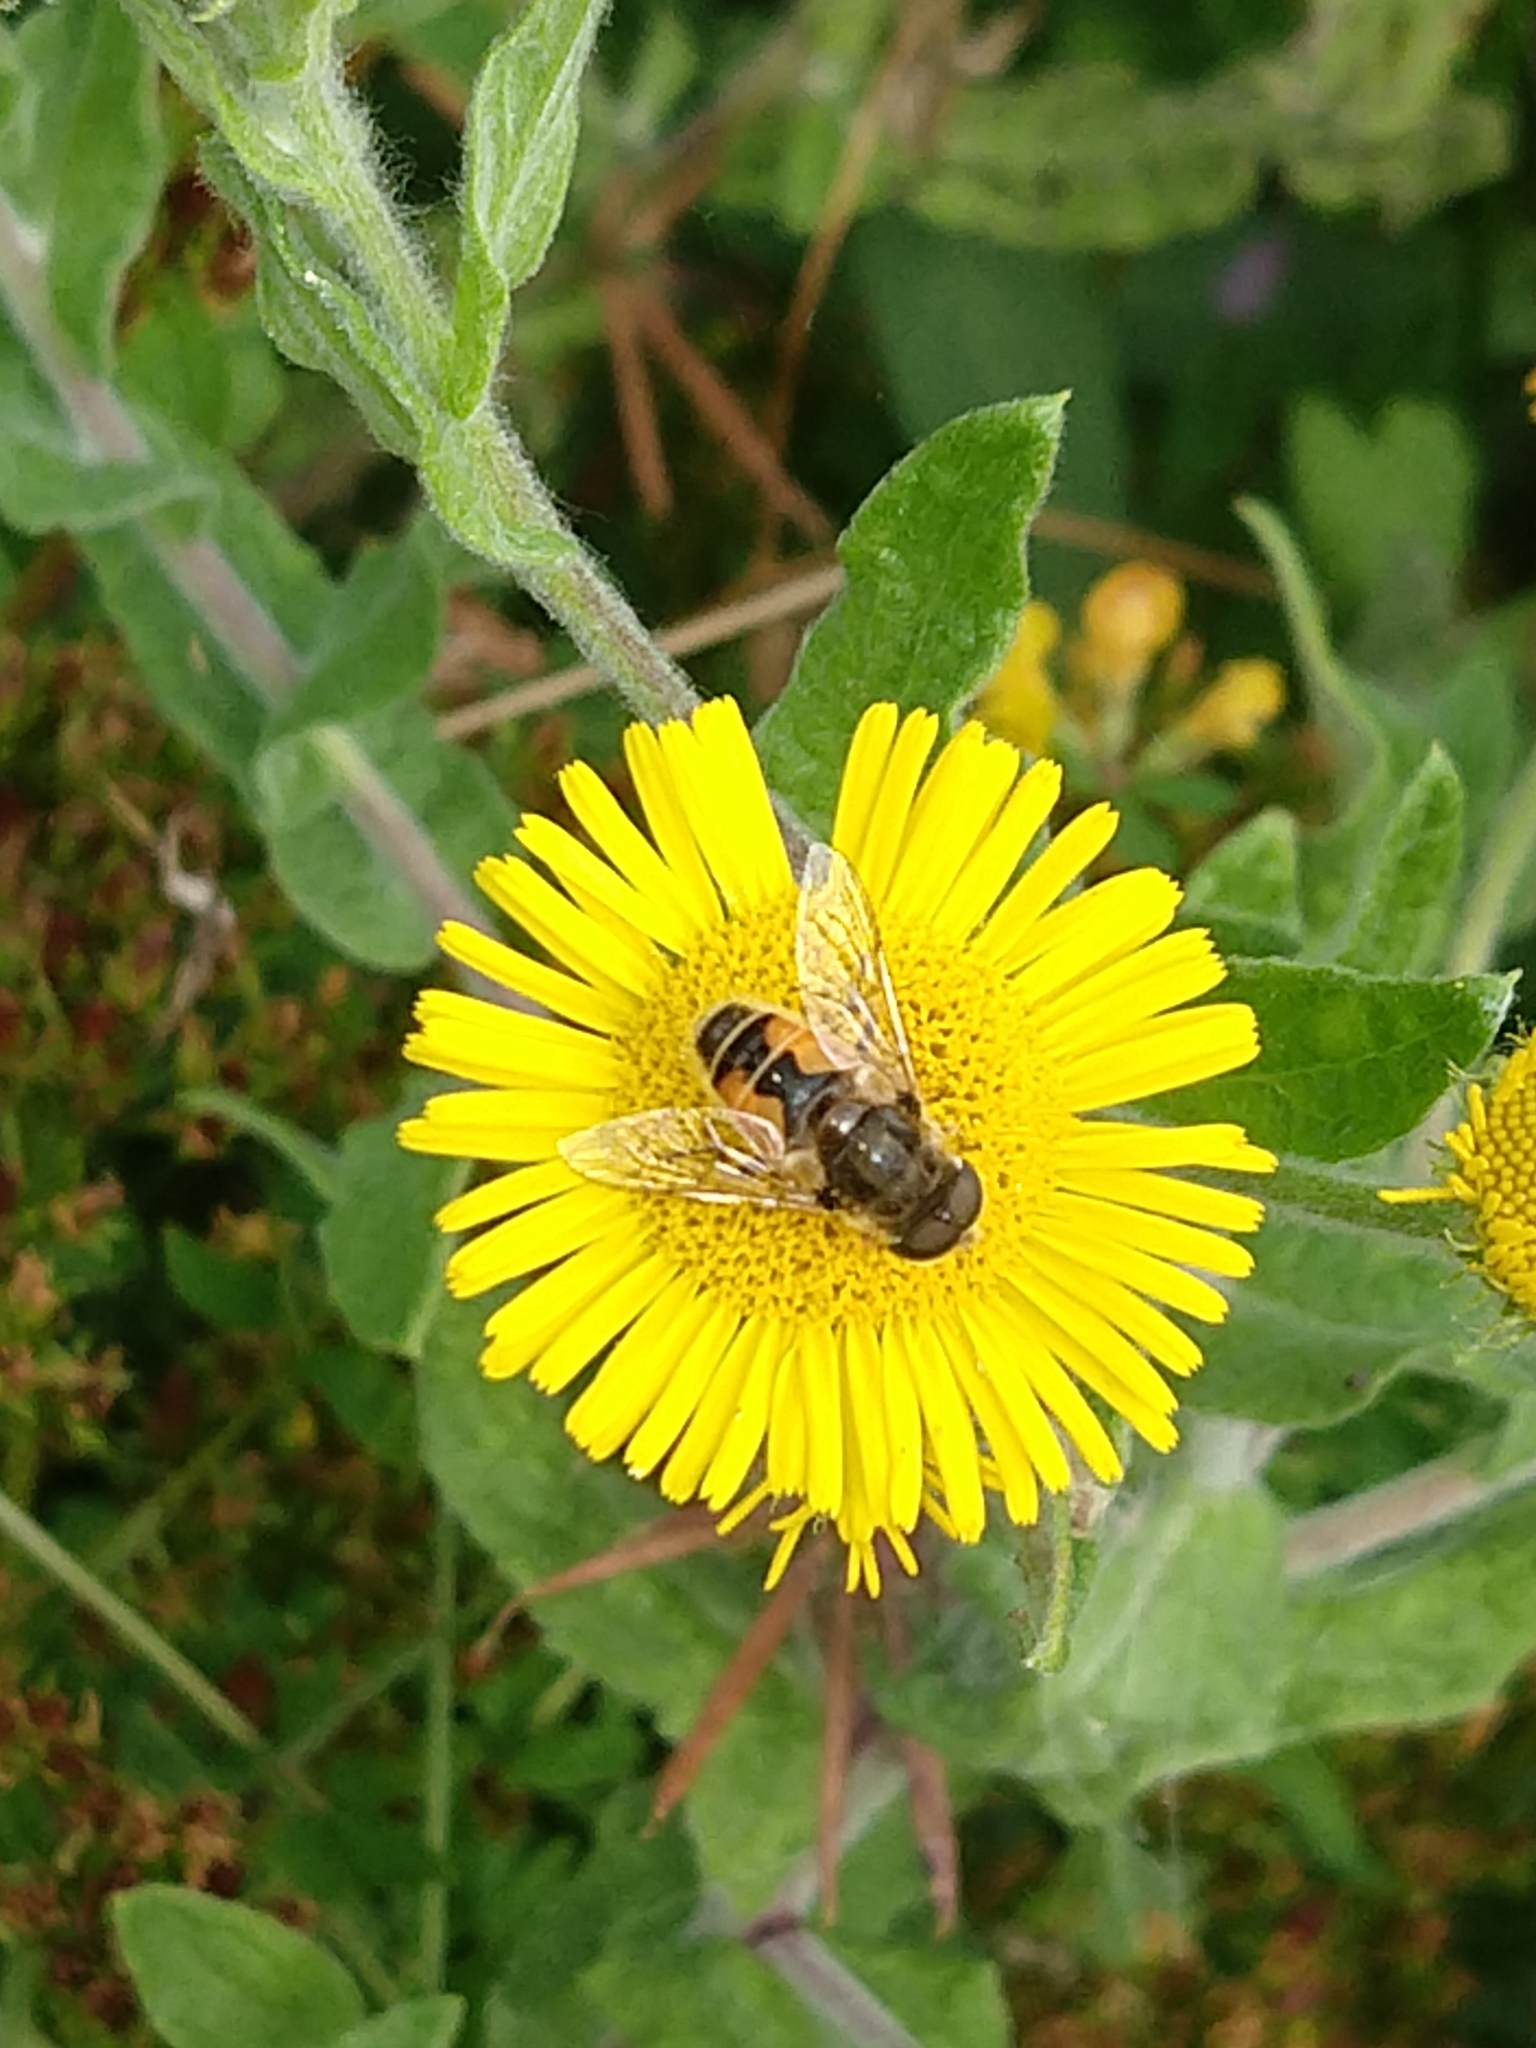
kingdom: Animalia
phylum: Arthropoda
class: Insecta
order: Diptera
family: Syrphidae
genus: Eristalis
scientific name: Eristalis arbustorum
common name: Hover fly
